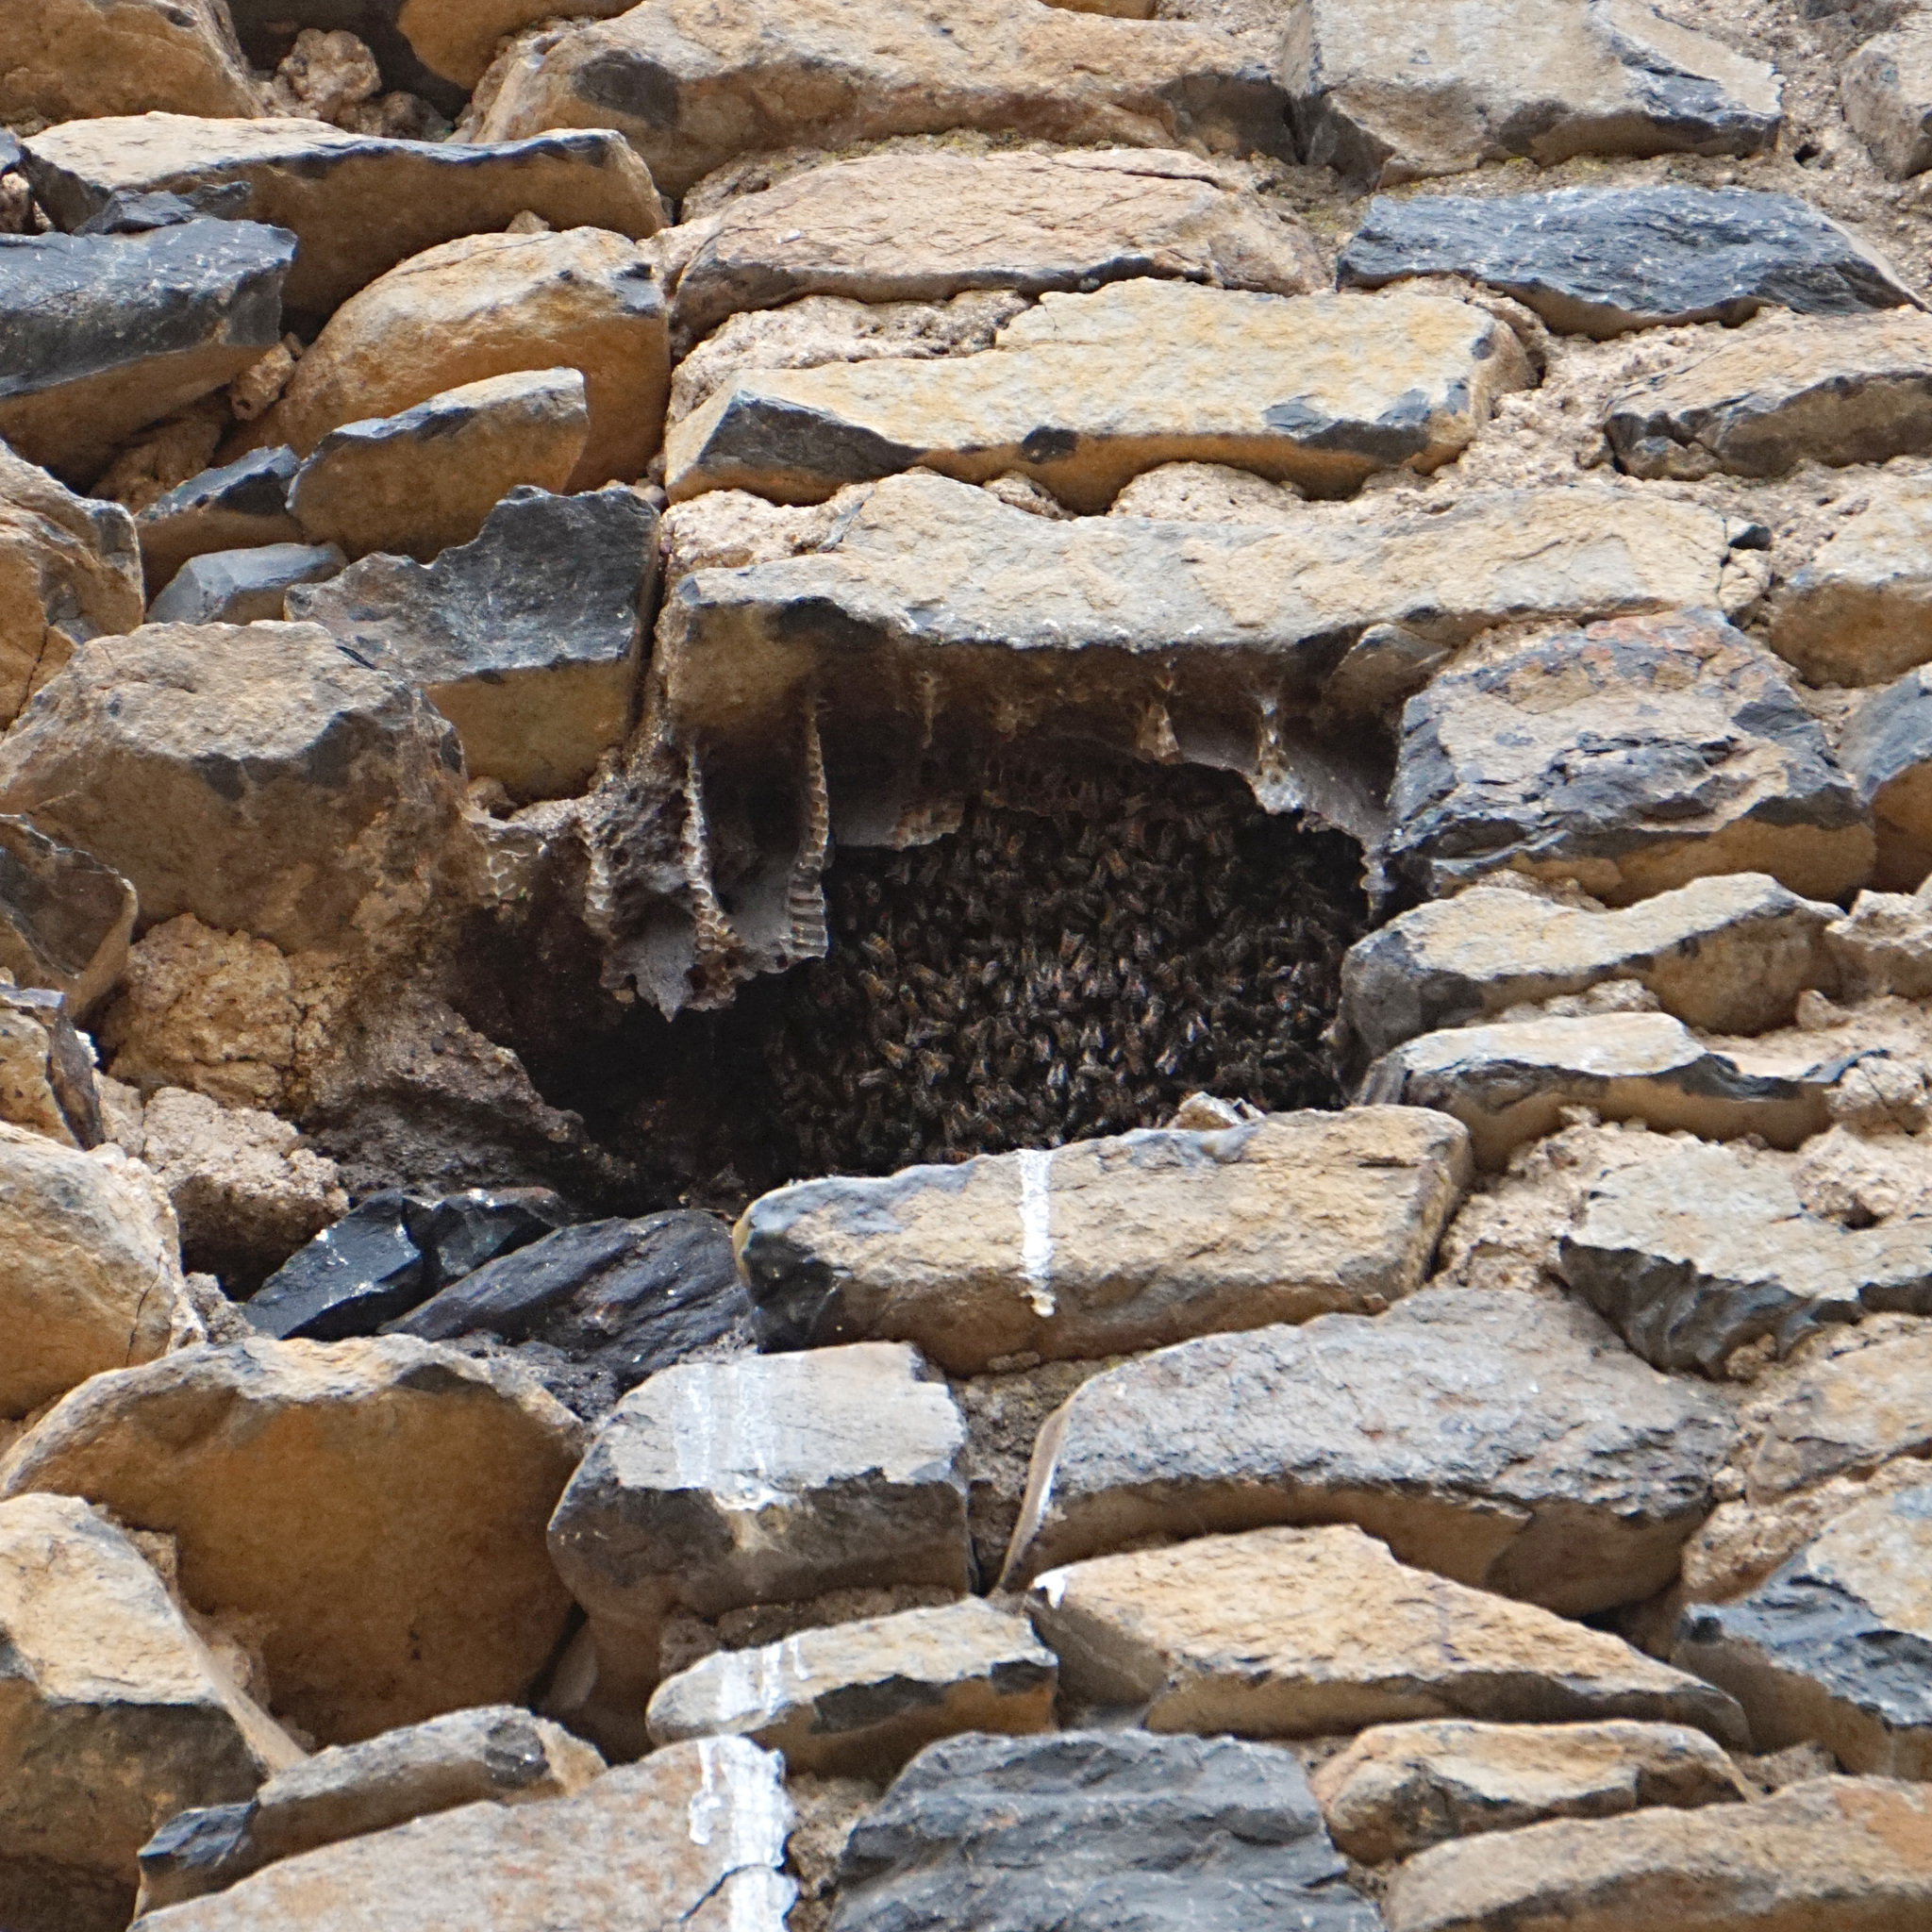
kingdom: Animalia
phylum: Arthropoda
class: Insecta
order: Hymenoptera
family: Apidae
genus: Apis
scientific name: Apis mellifera
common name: Honey bee
